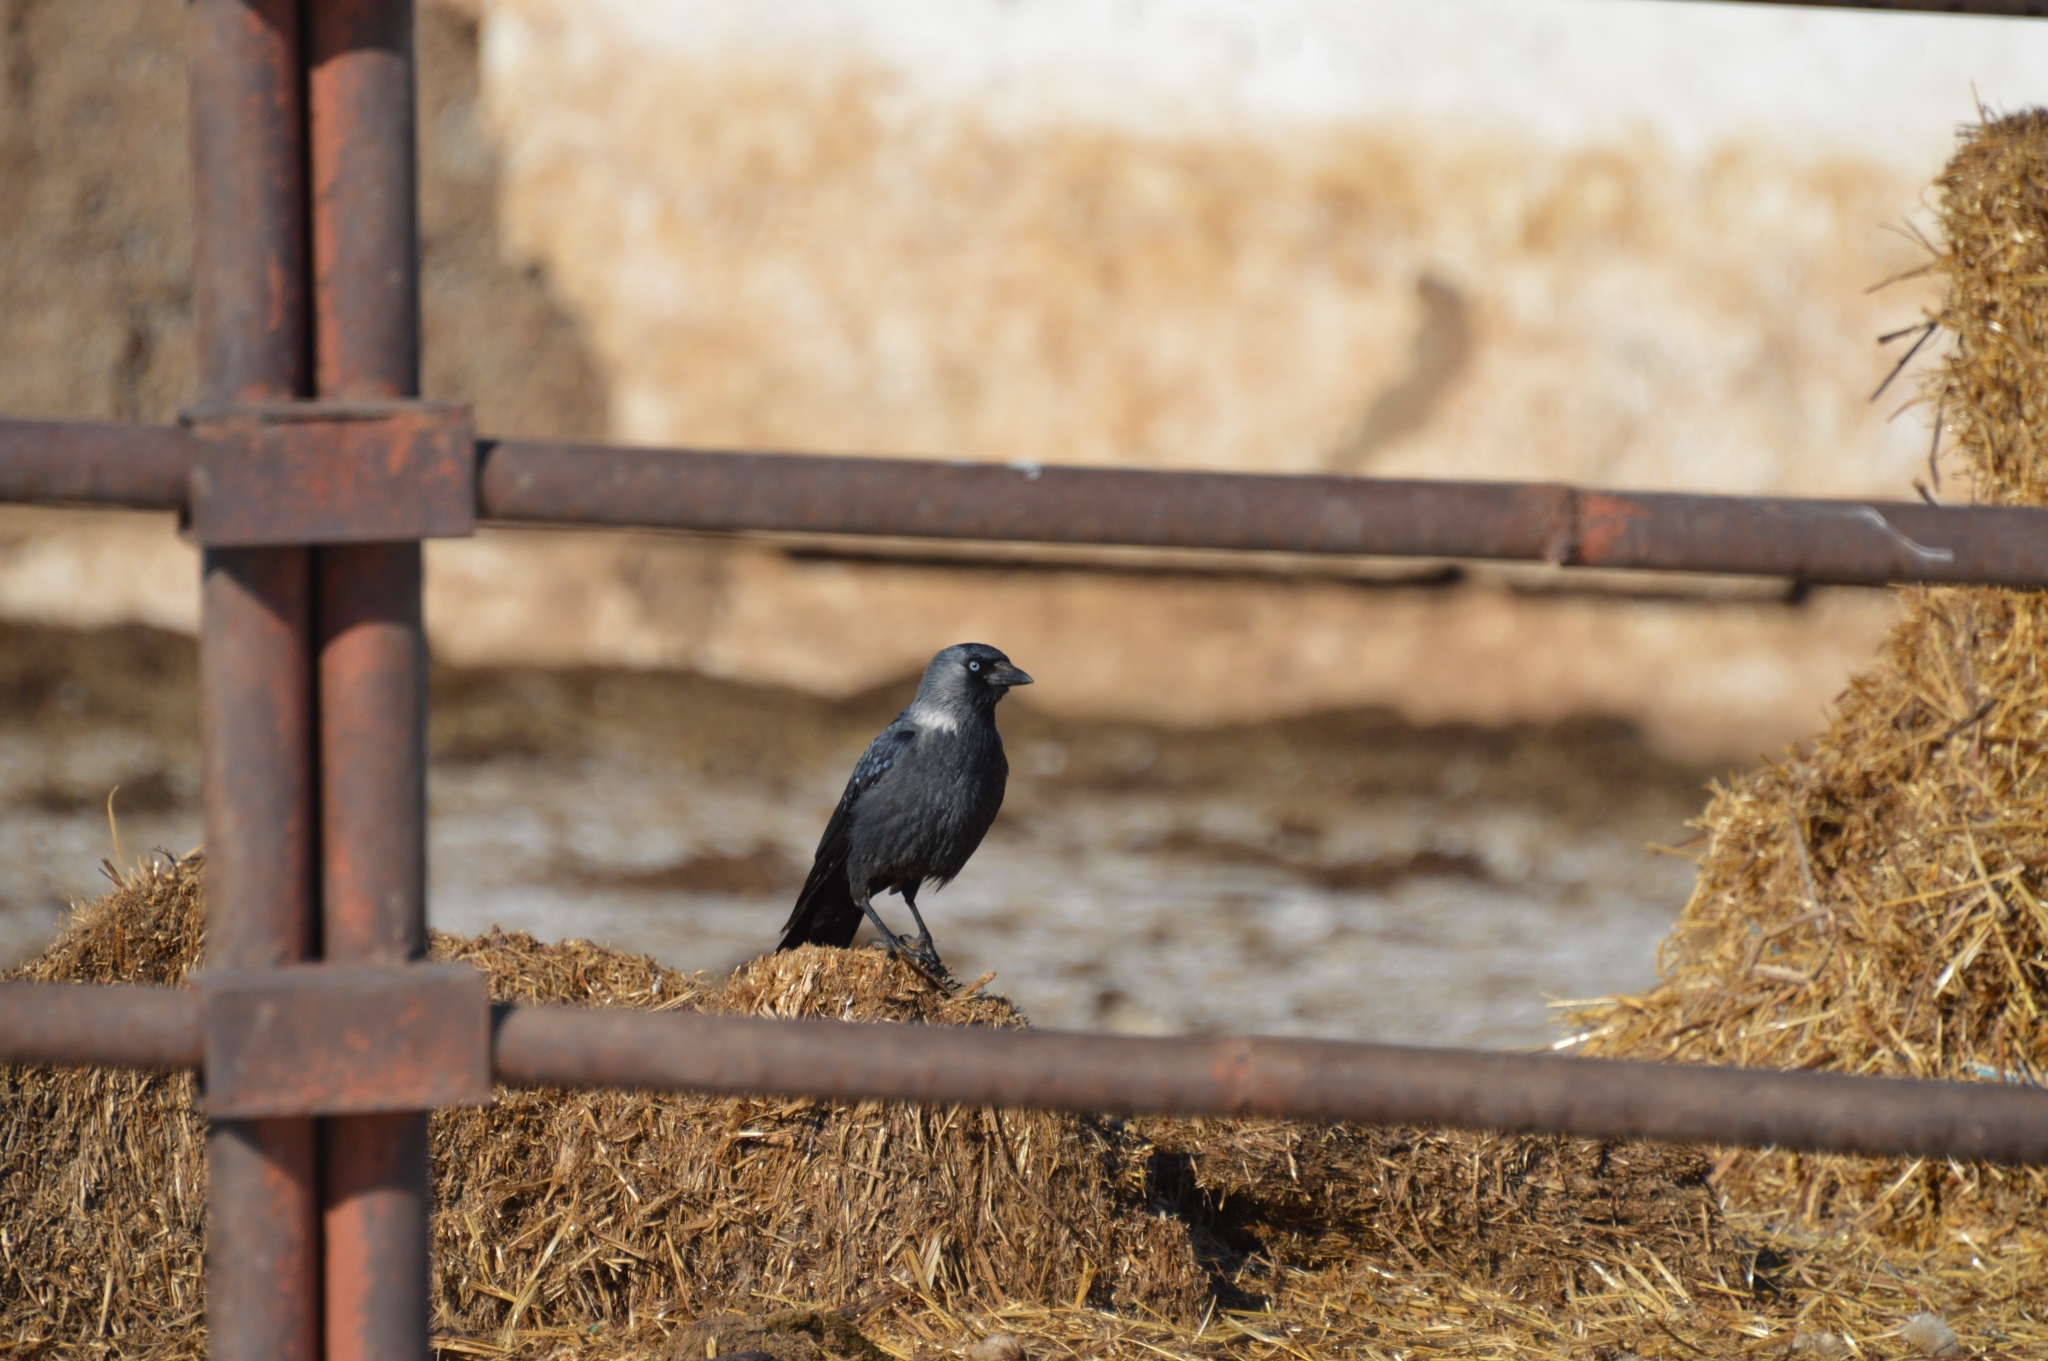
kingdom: Animalia
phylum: Chordata
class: Aves
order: Passeriformes
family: Corvidae
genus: Coloeus
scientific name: Coloeus monedula
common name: Western jackdaw
